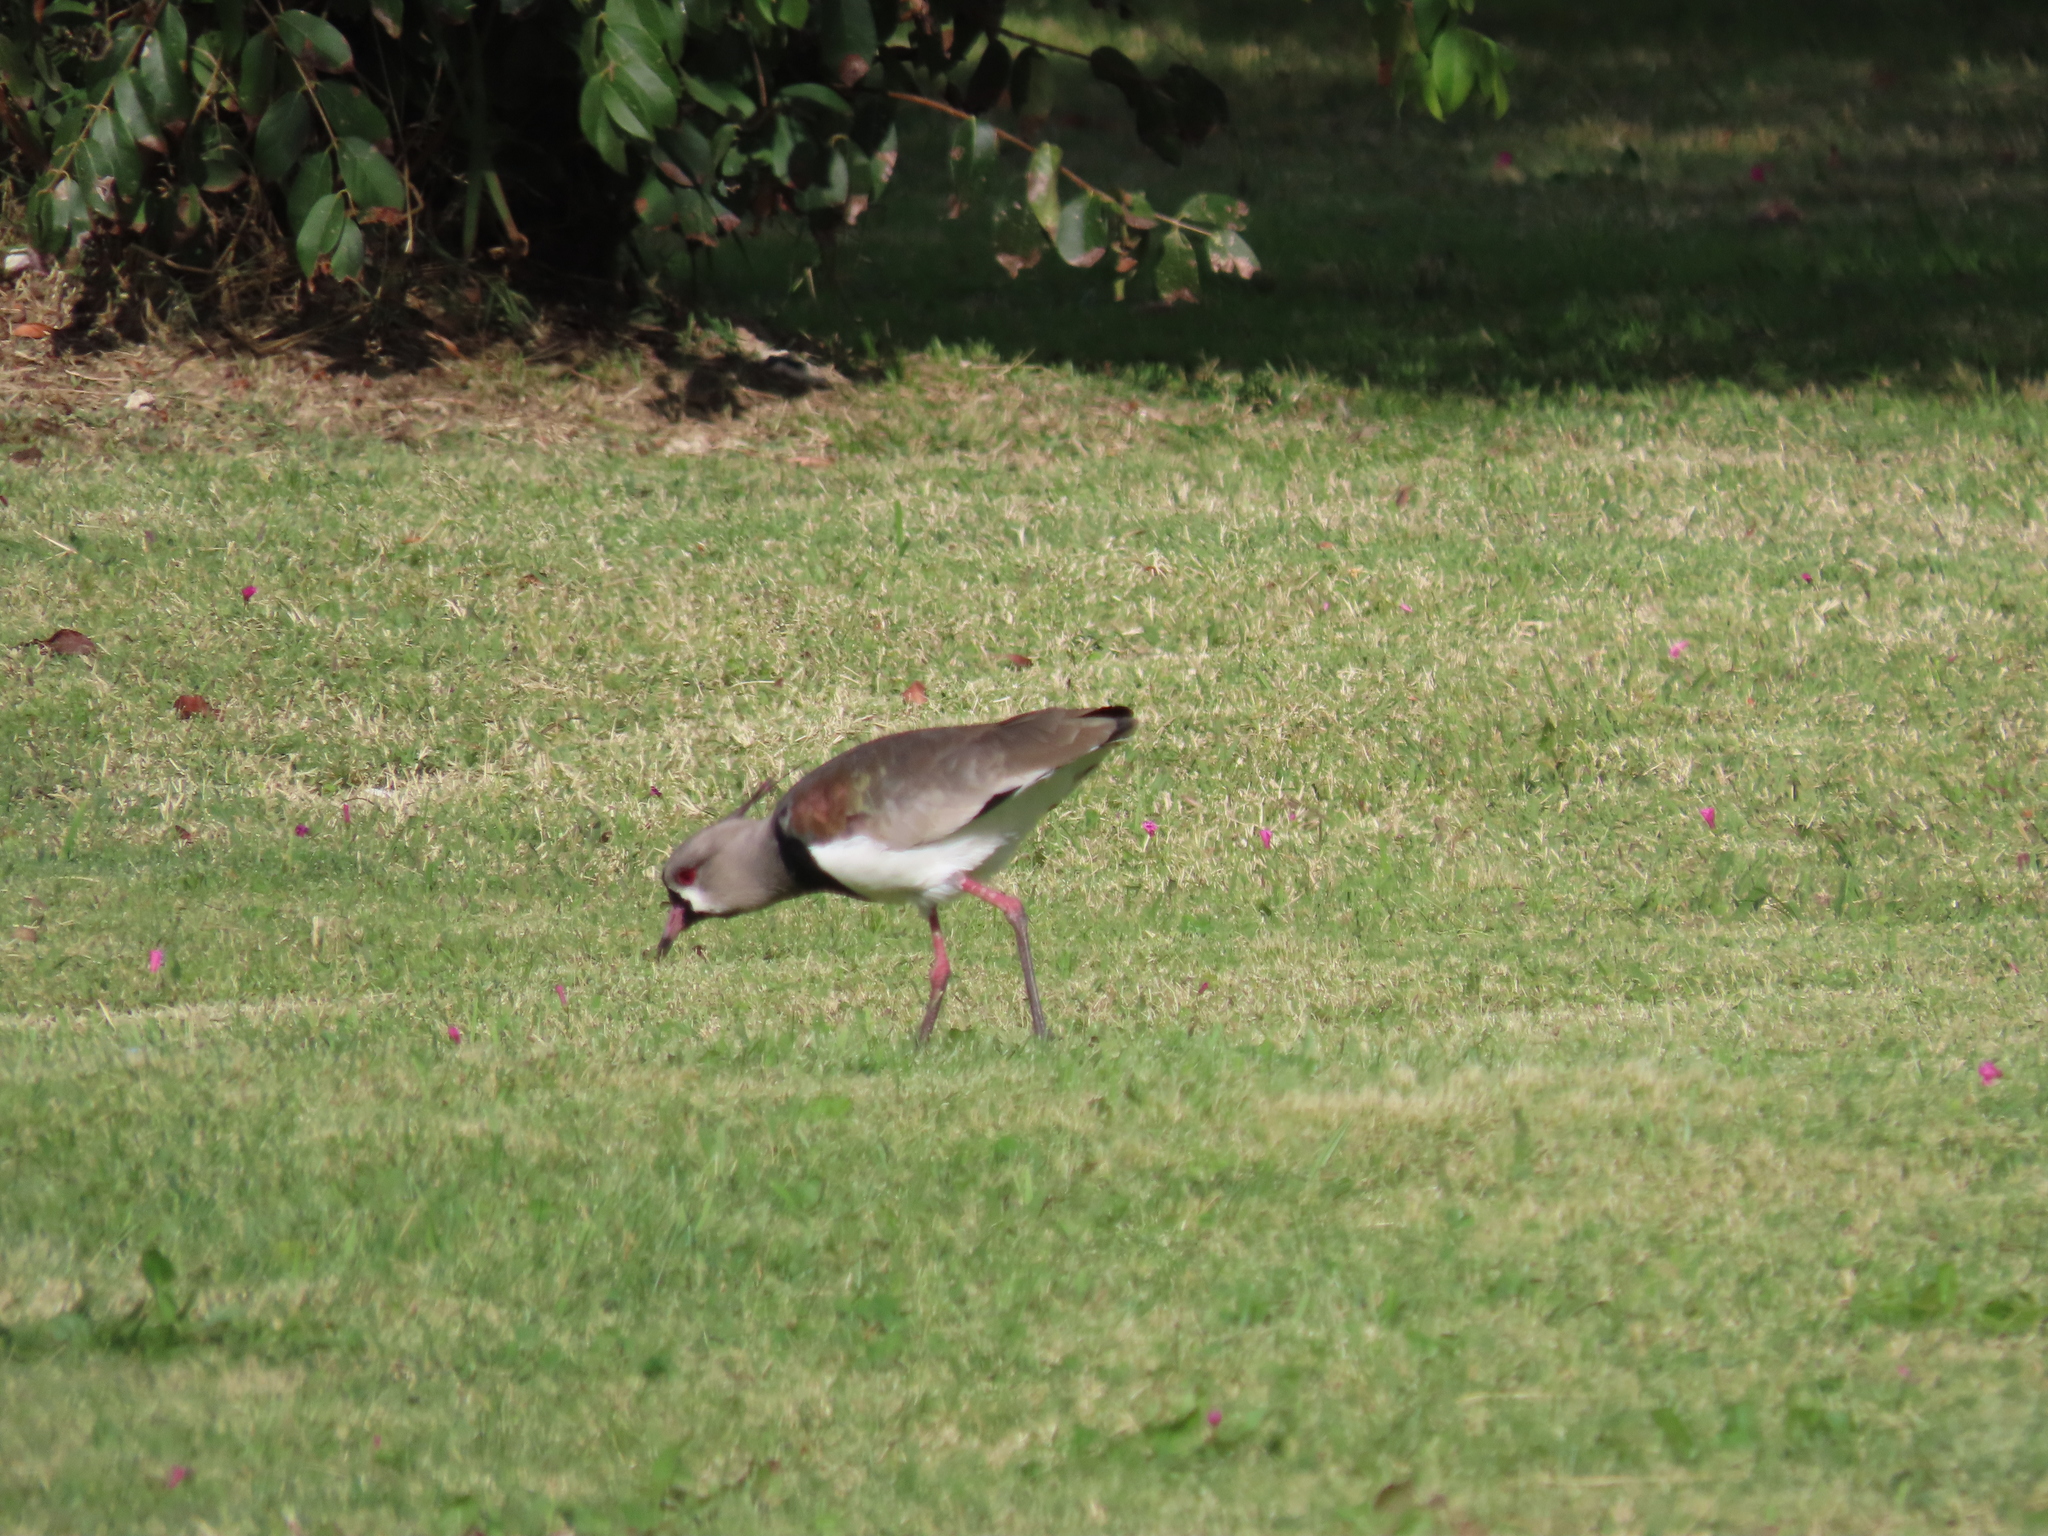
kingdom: Animalia
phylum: Chordata
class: Aves
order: Charadriiformes
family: Charadriidae
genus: Vanellus
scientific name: Vanellus chilensis
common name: Southern lapwing
